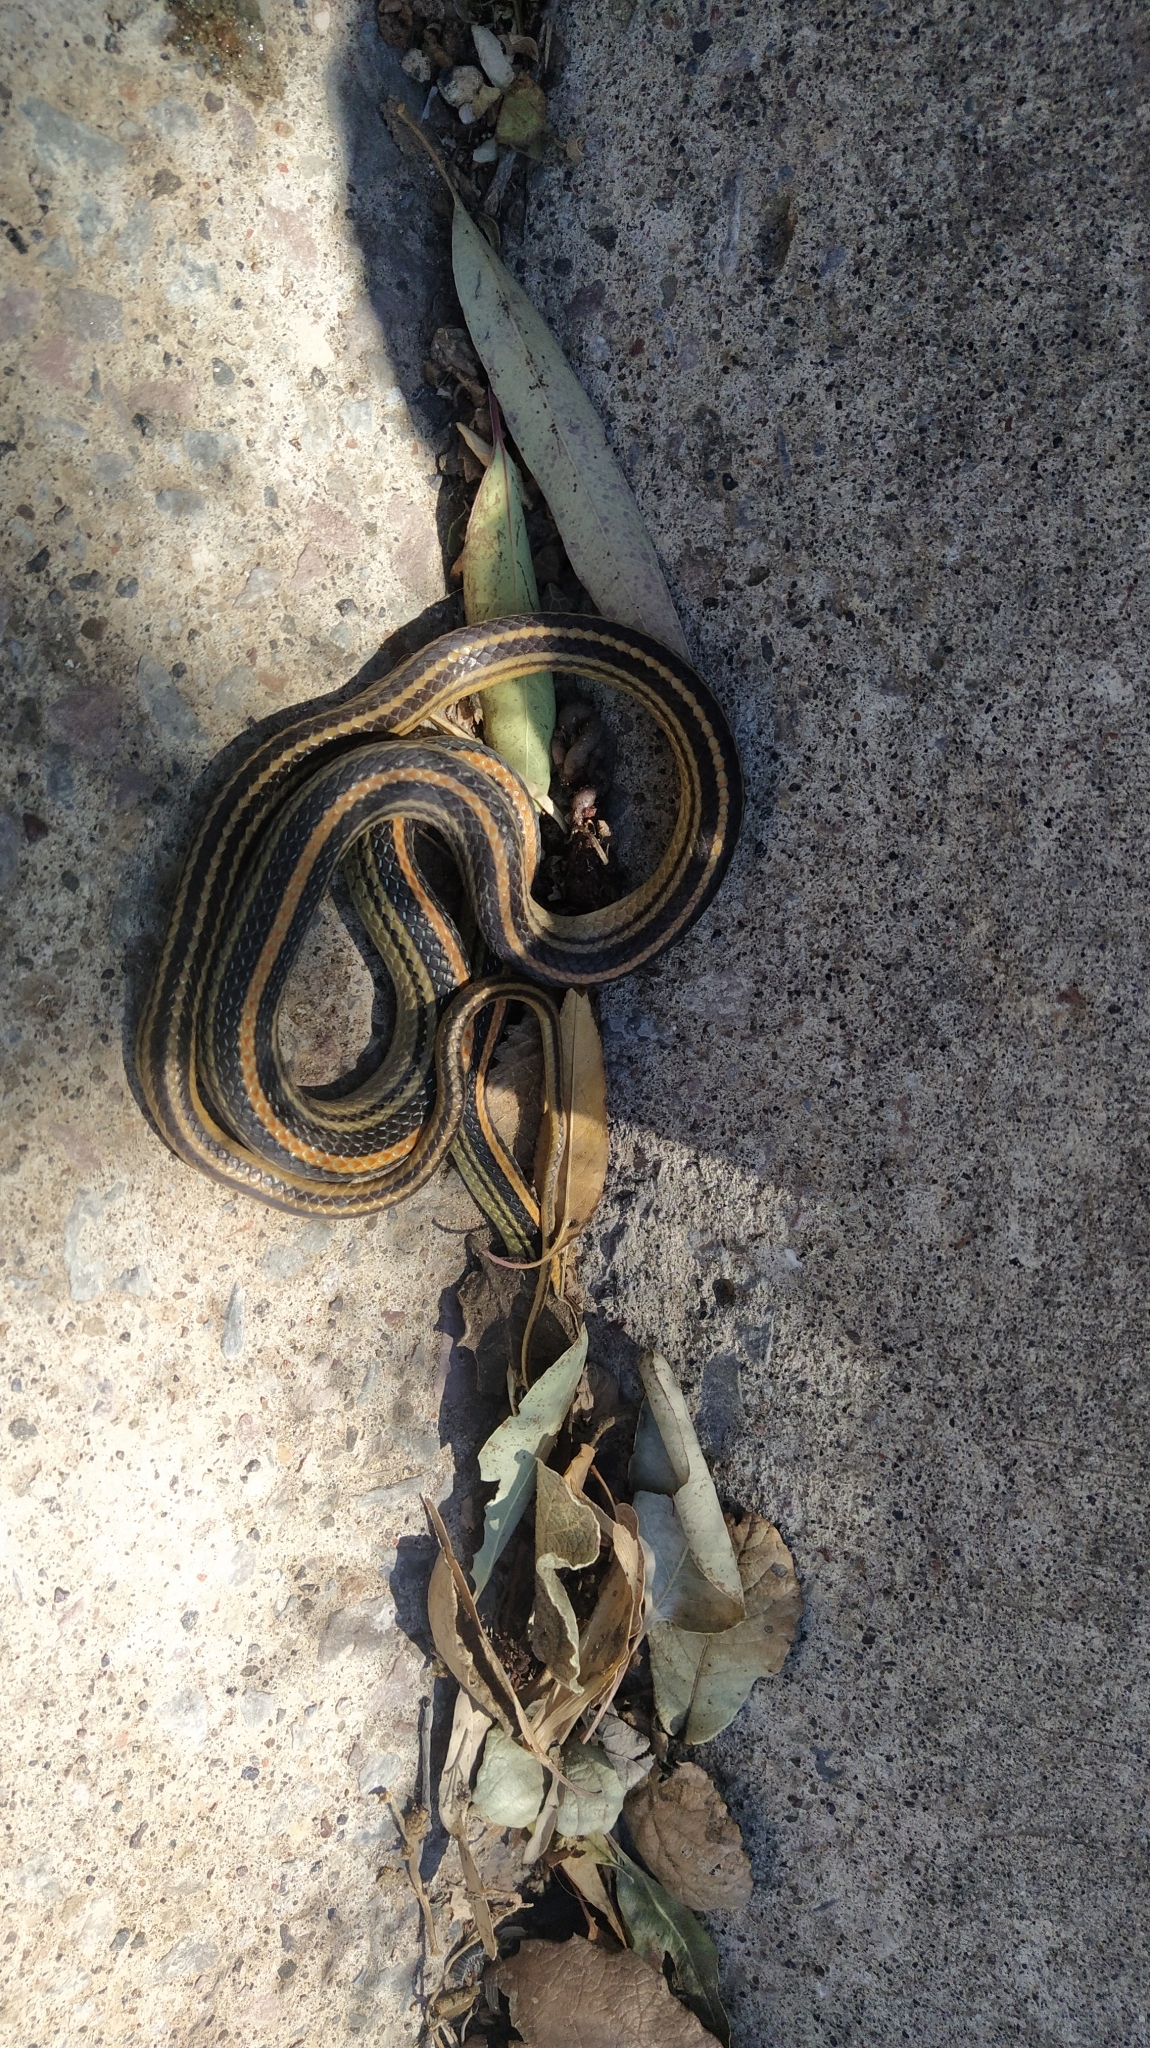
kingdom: Animalia
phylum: Chordata
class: Squamata
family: Colubridae
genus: Salvadora
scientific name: Salvadora bairdi
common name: Baird's patchnose snake
